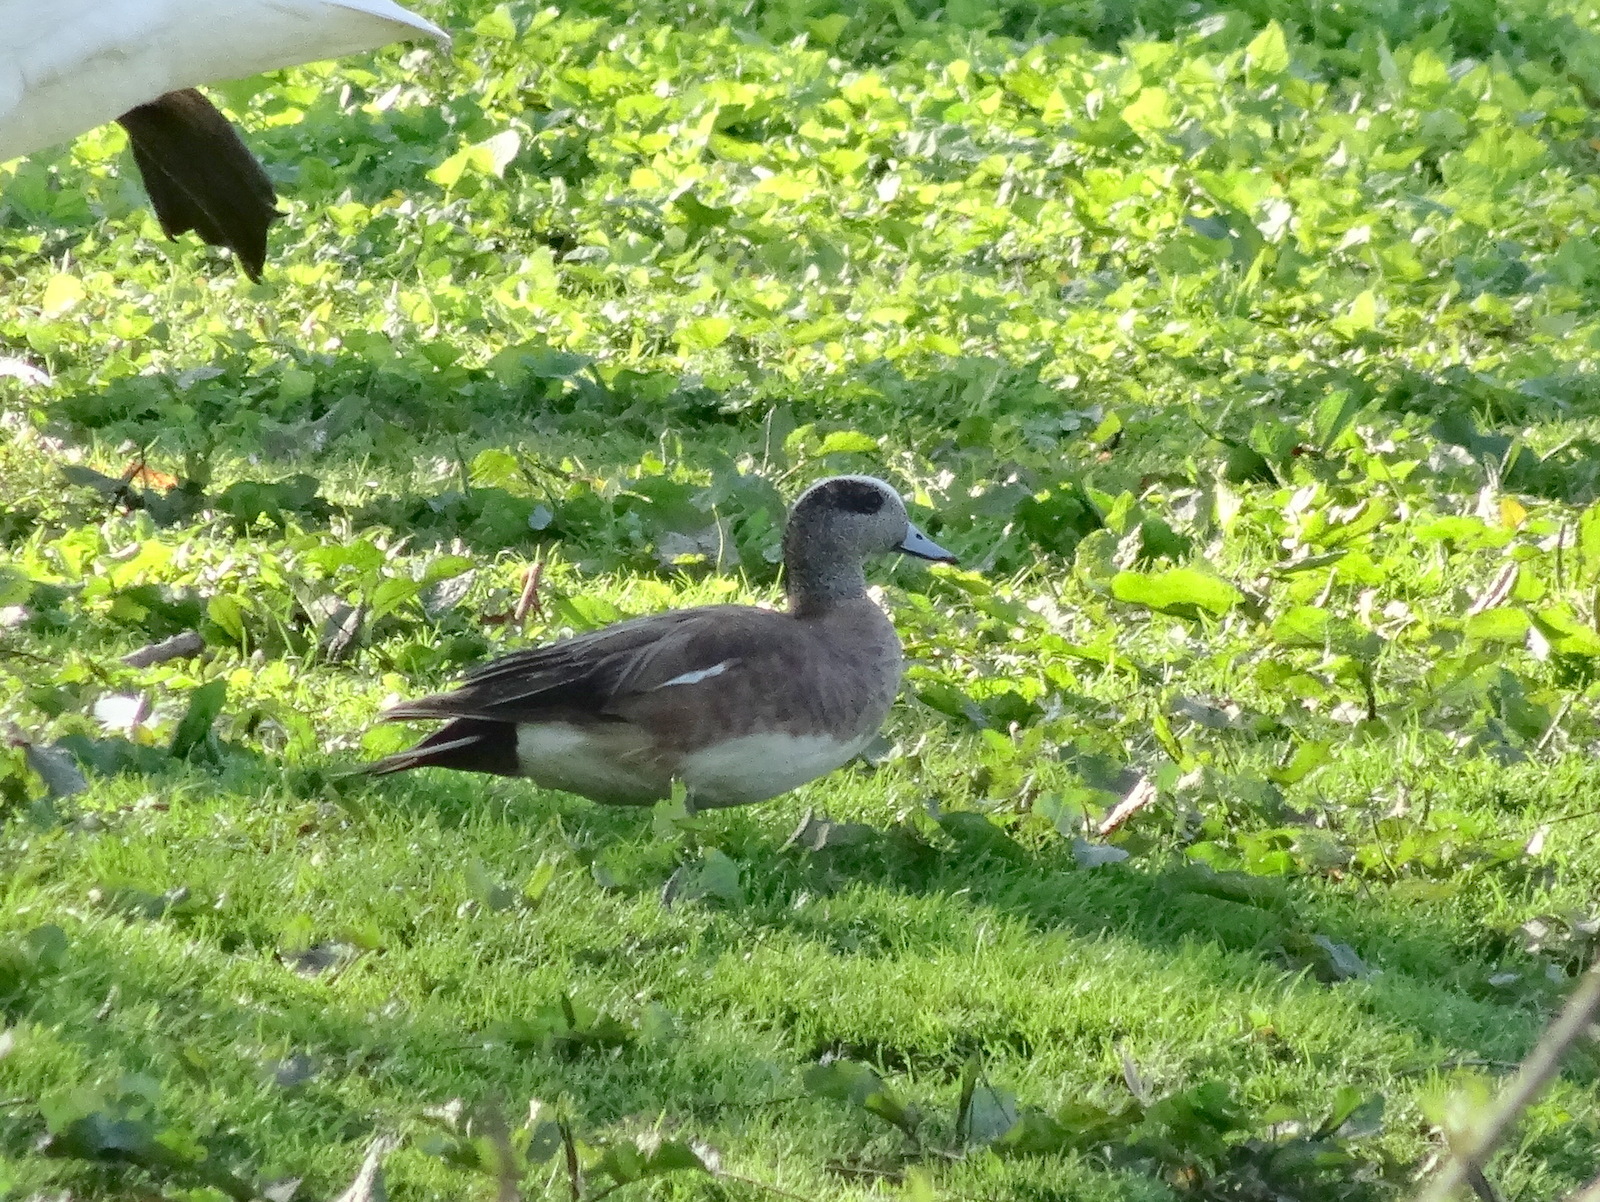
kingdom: Animalia
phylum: Chordata
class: Aves
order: Anseriformes
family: Anatidae
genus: Mareca
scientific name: Mareca americana
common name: American wigeon
